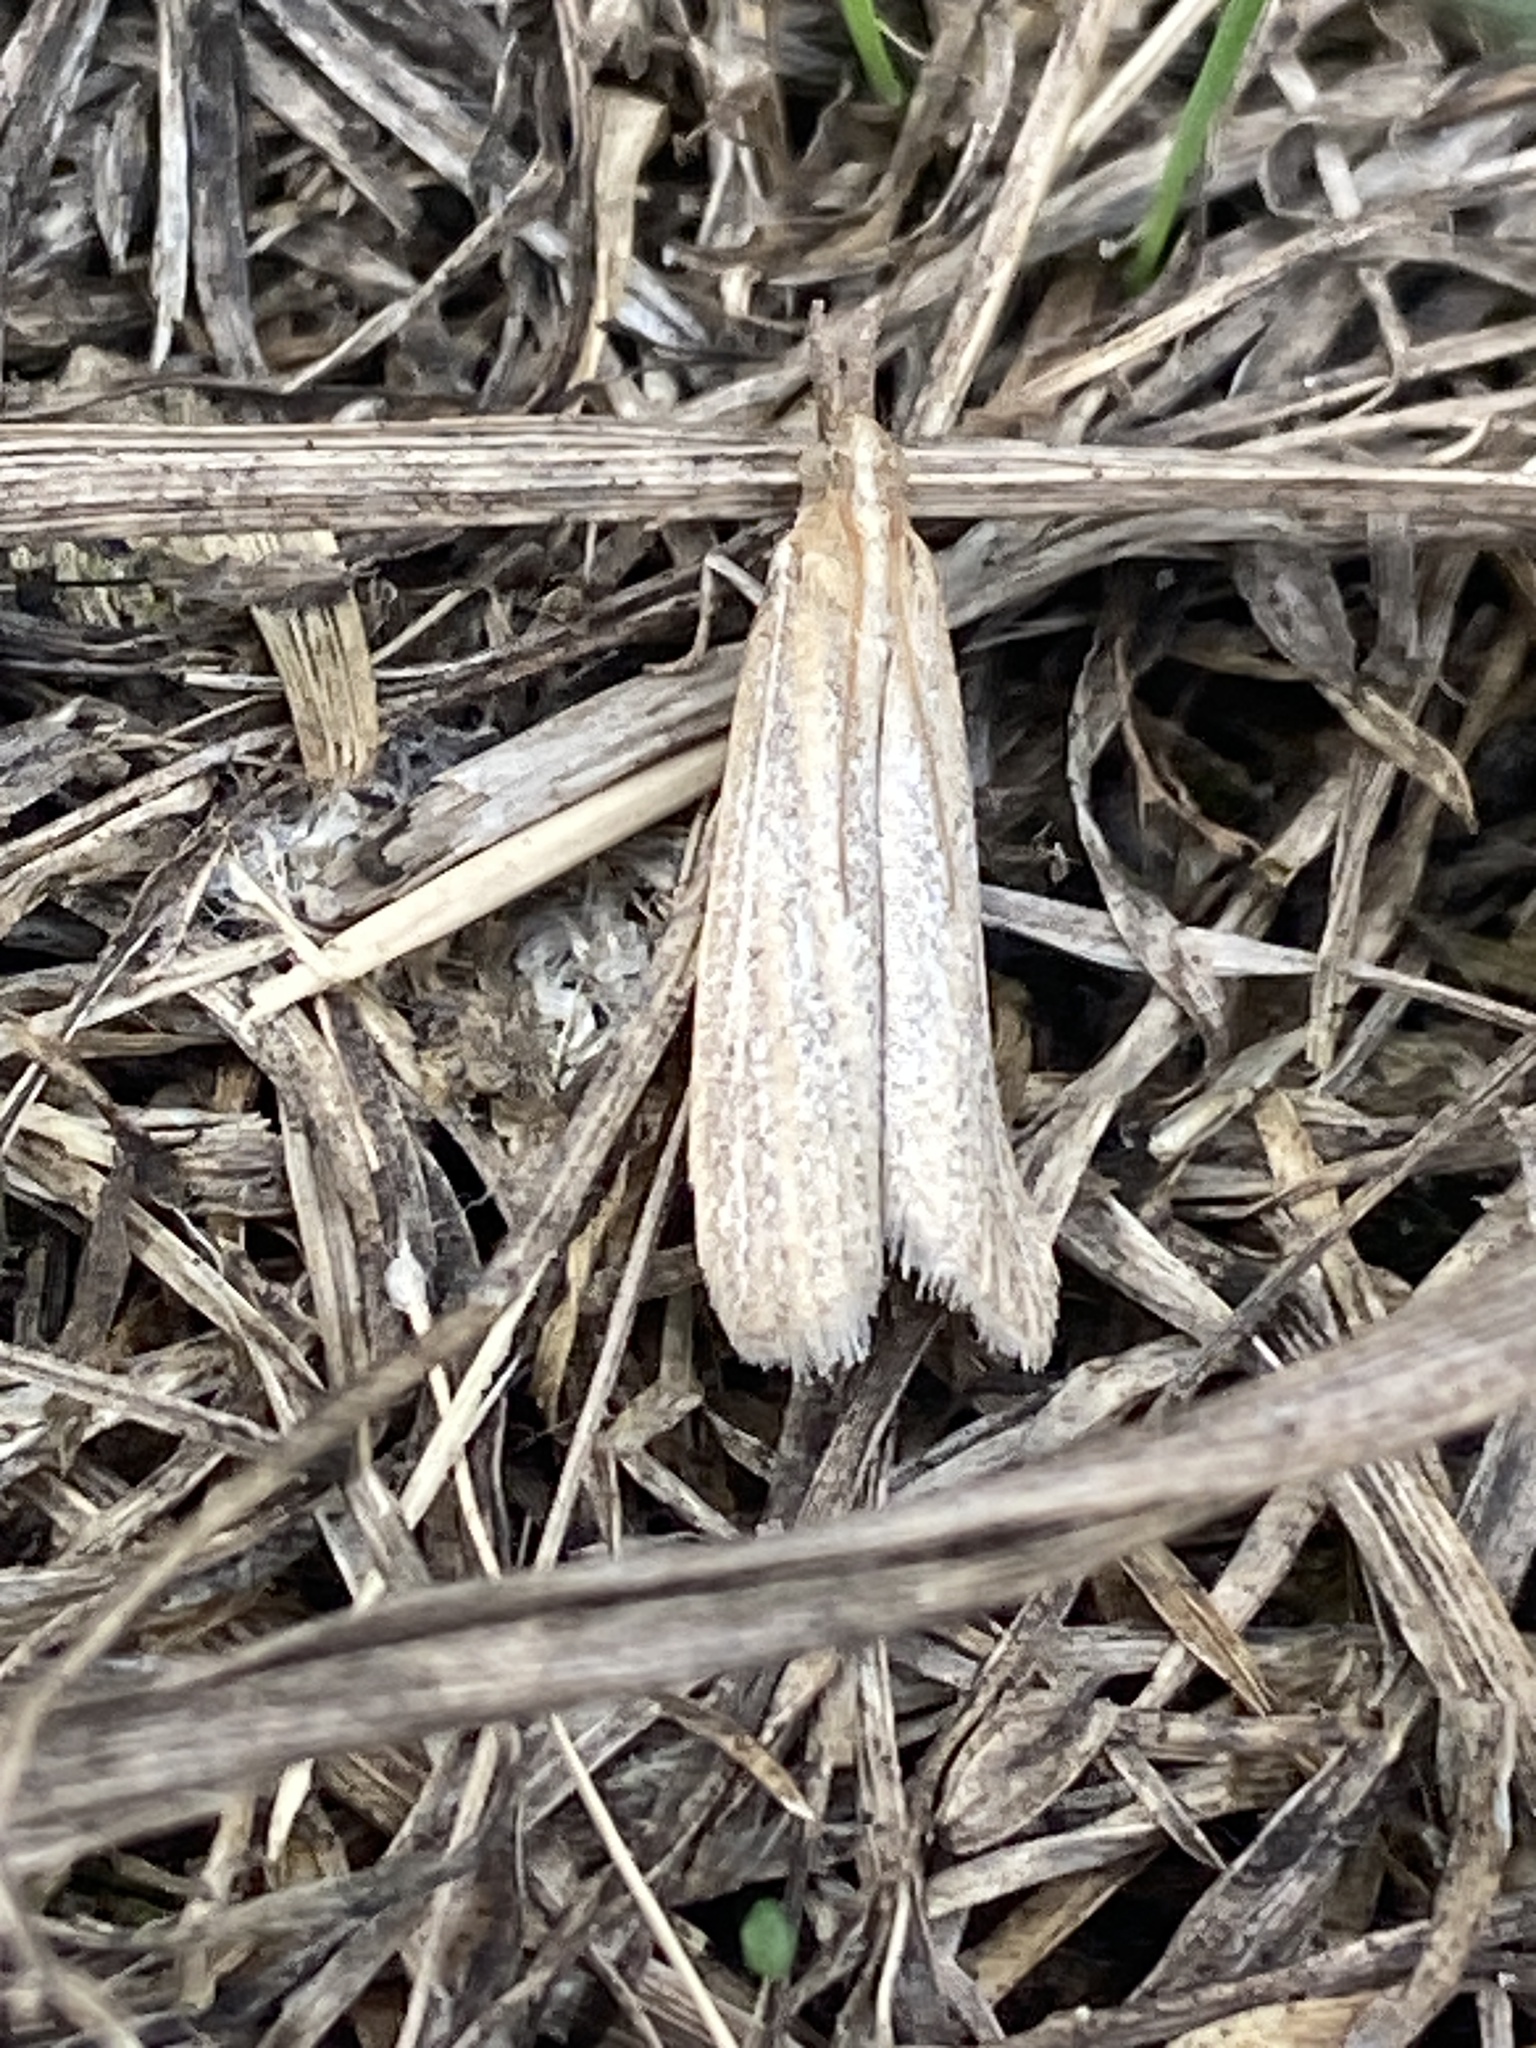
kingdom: Animalia
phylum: Arthropoda
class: Insecta
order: Lepidoptera
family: Pyralidae
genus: Anerastia
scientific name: Anerastia lotella
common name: Sandhill knot-horn
